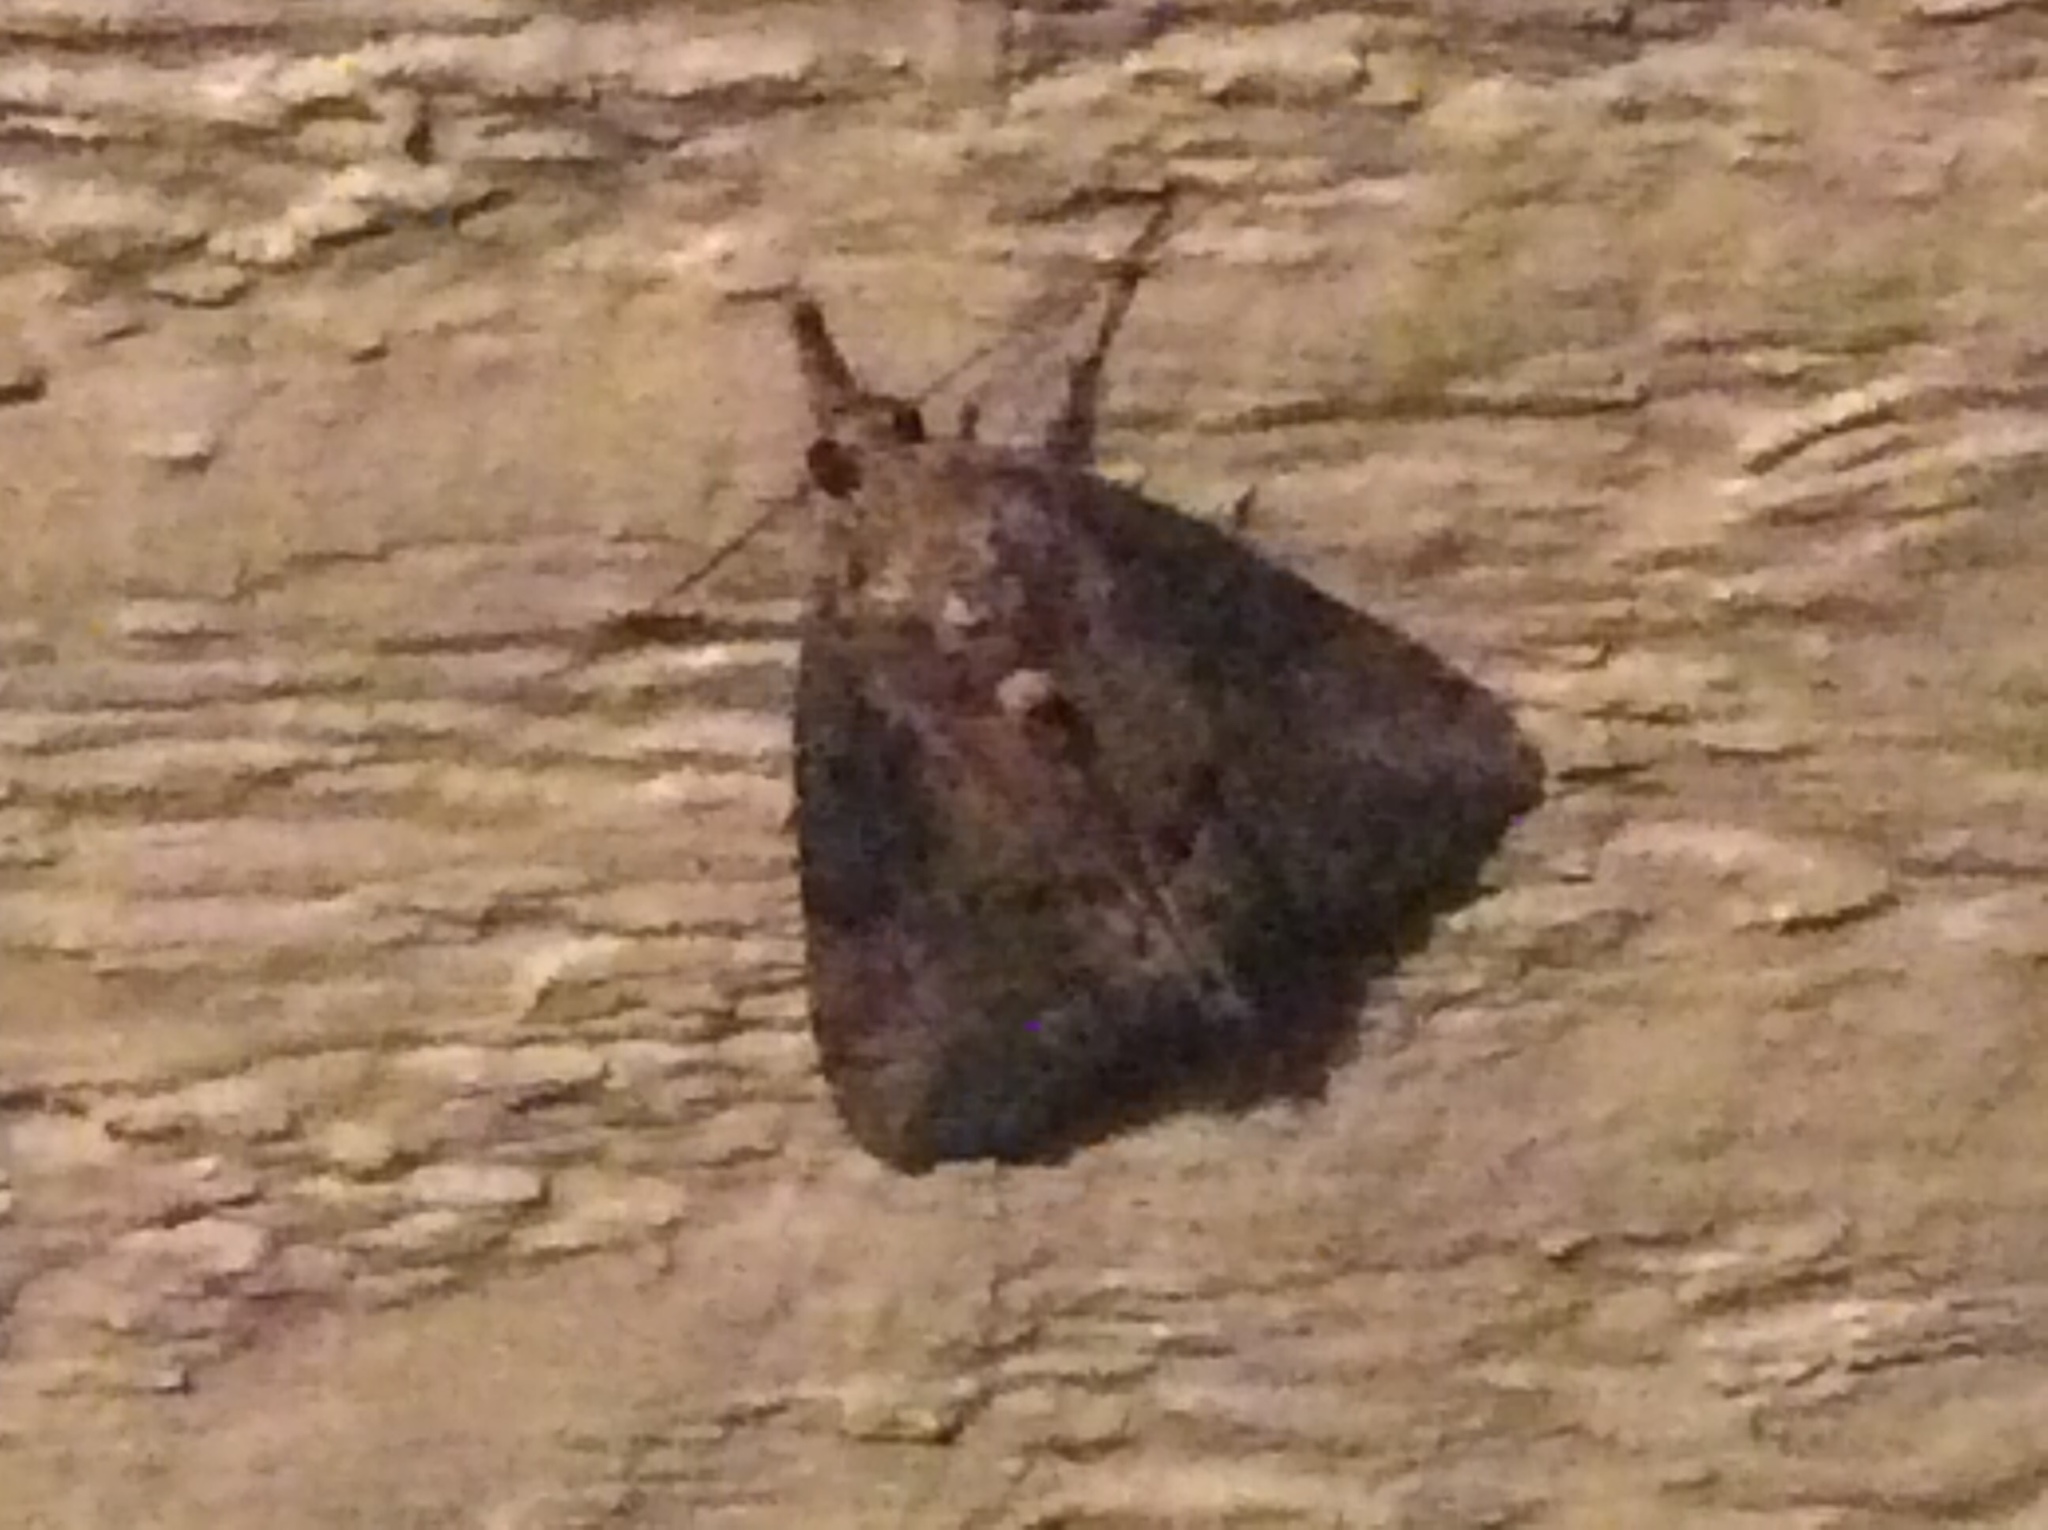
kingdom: Animalia
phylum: Arthropoda
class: Insecta
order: Lepidoptera
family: Erebidae
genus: Hypena
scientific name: Hypena scabra
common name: Green cloverworm
